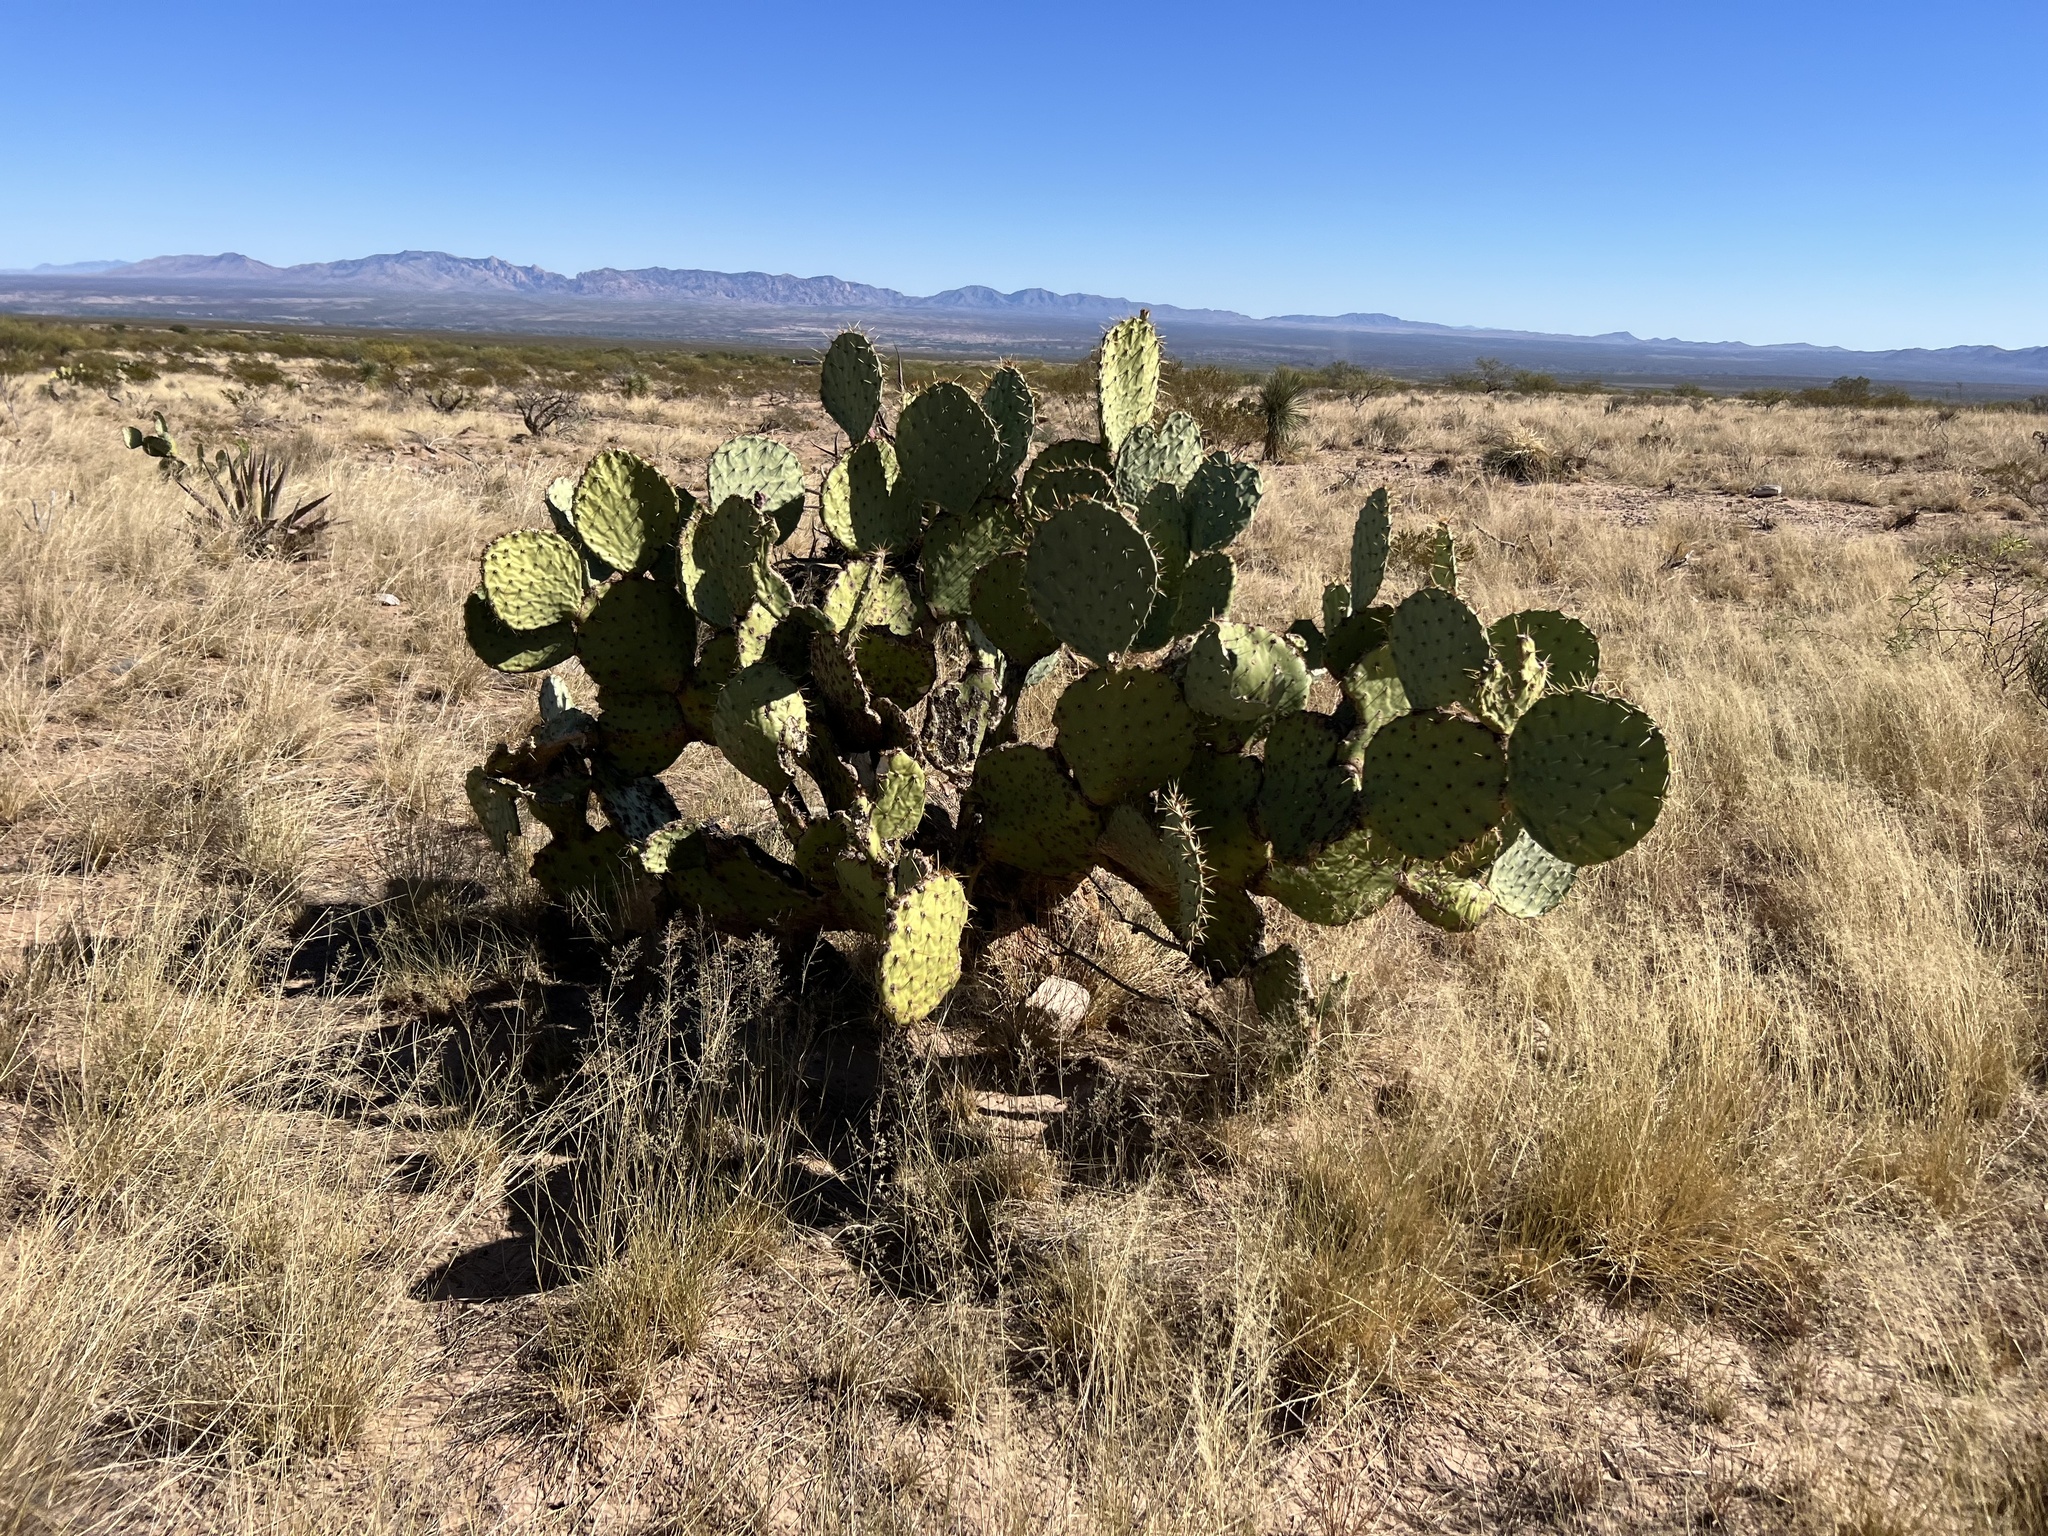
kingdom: Plantae
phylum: Tracheophyta
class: Magnoliopsida
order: Caryophyllales
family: Cactaceae
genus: Opuntia
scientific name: Opuntia engelmannii
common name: Cactus-apple
